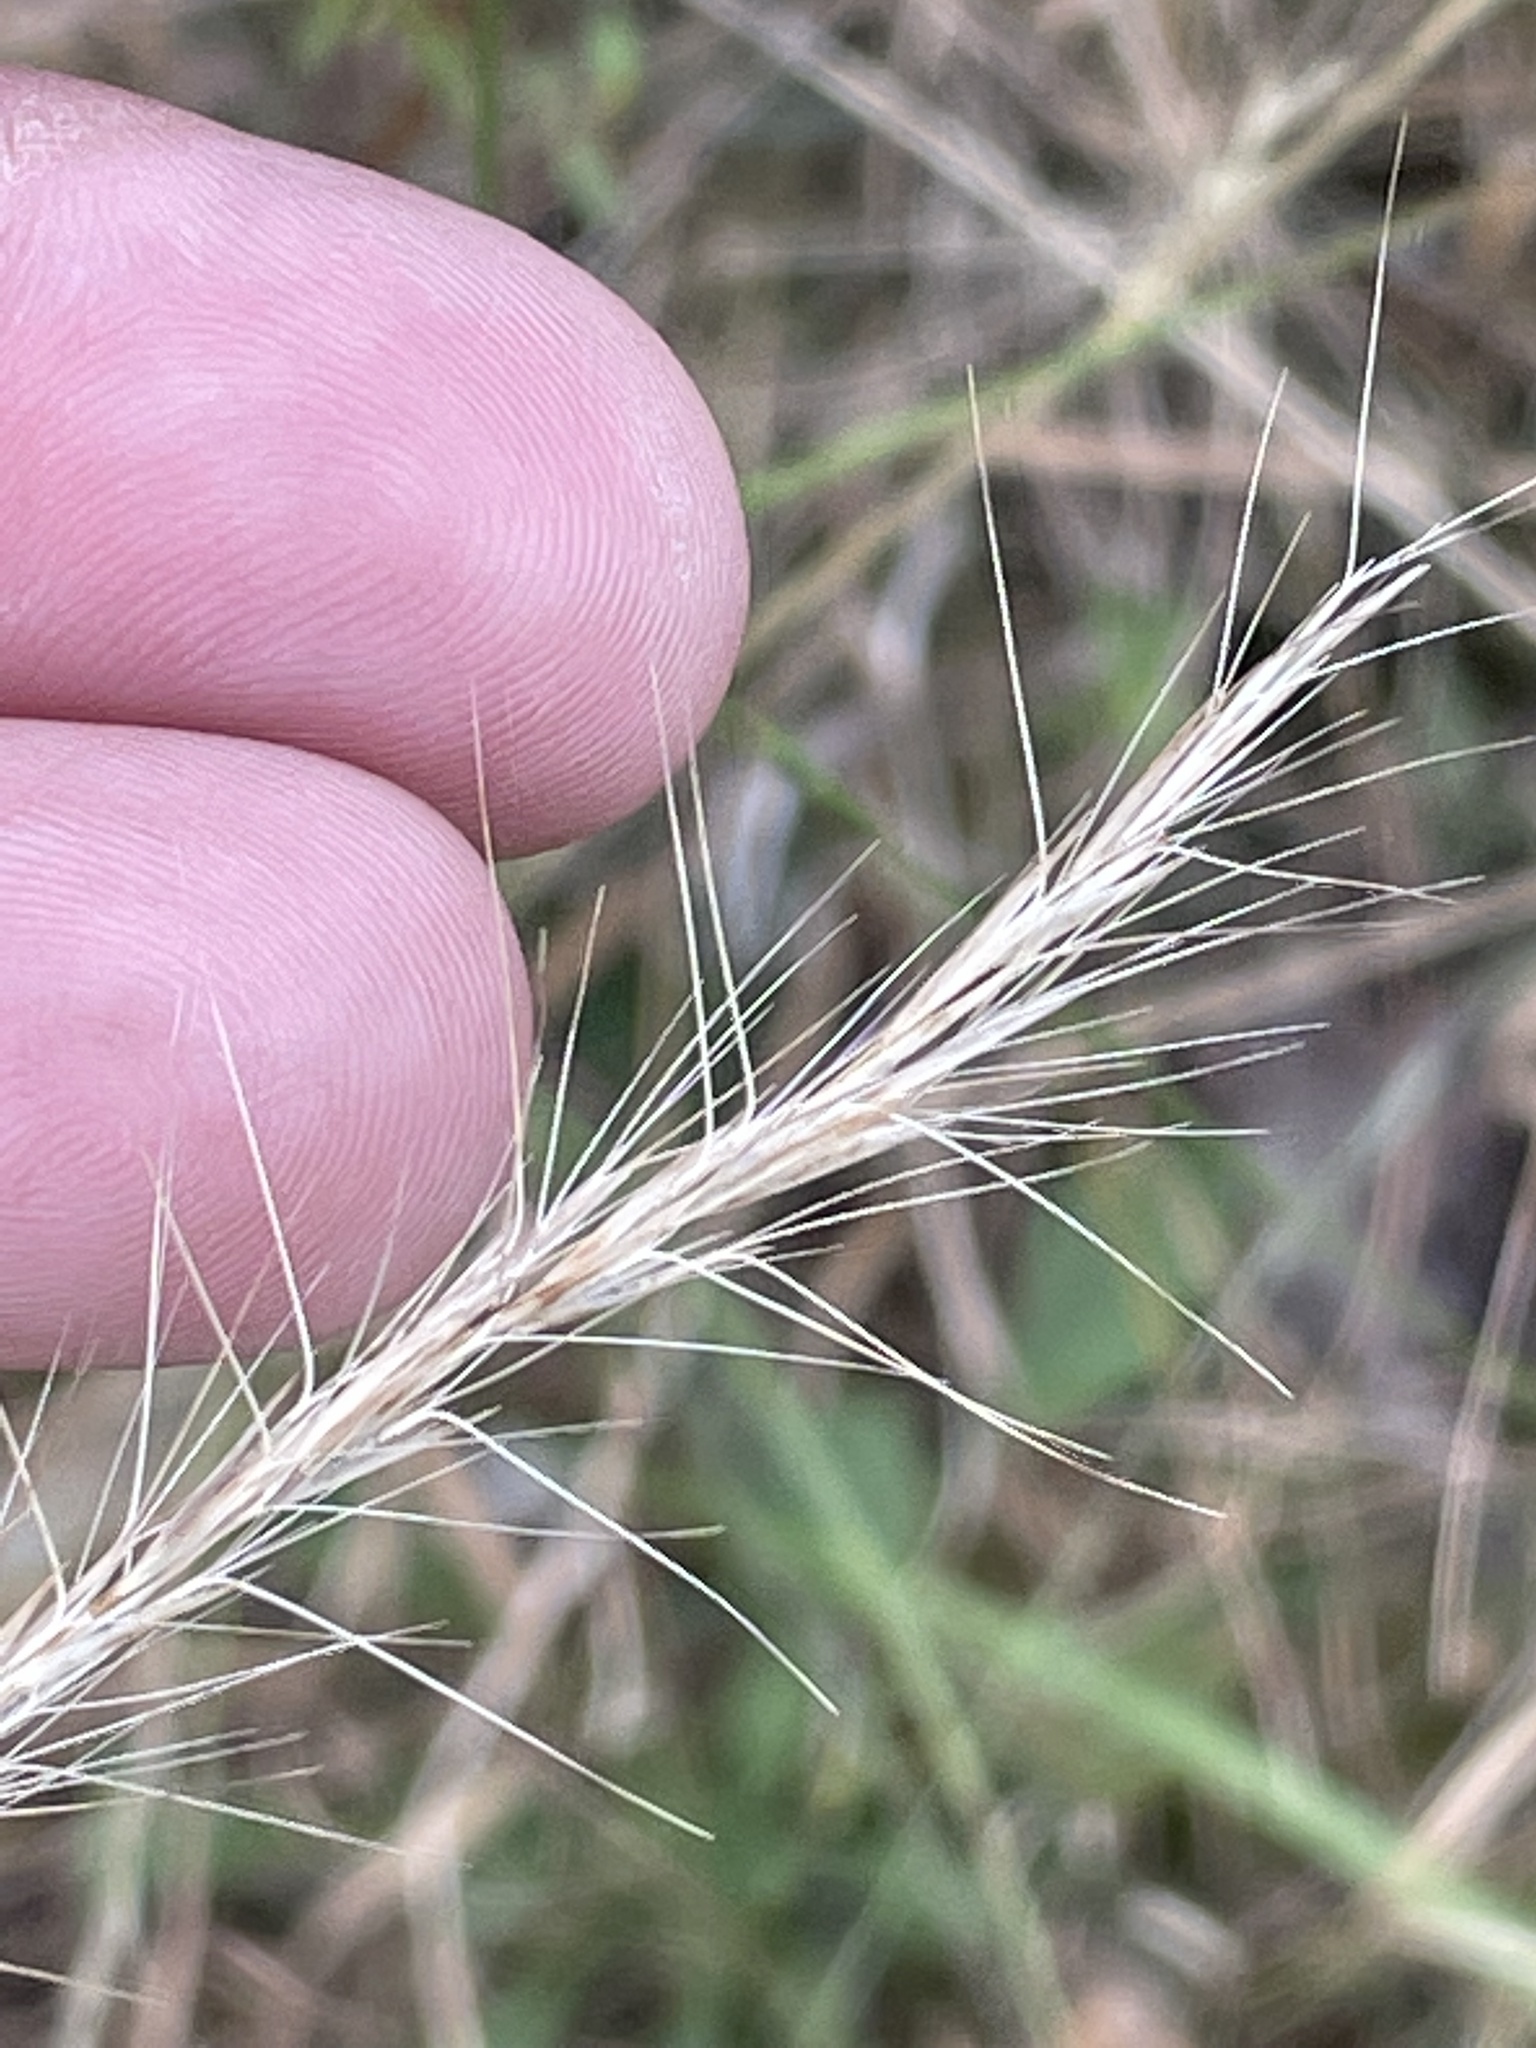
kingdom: Plantae
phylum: Tracheophyta
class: Liliopsida
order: Poales
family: Poaceae
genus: Aristida
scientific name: Aristida purpurascens
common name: Arrow-feather
